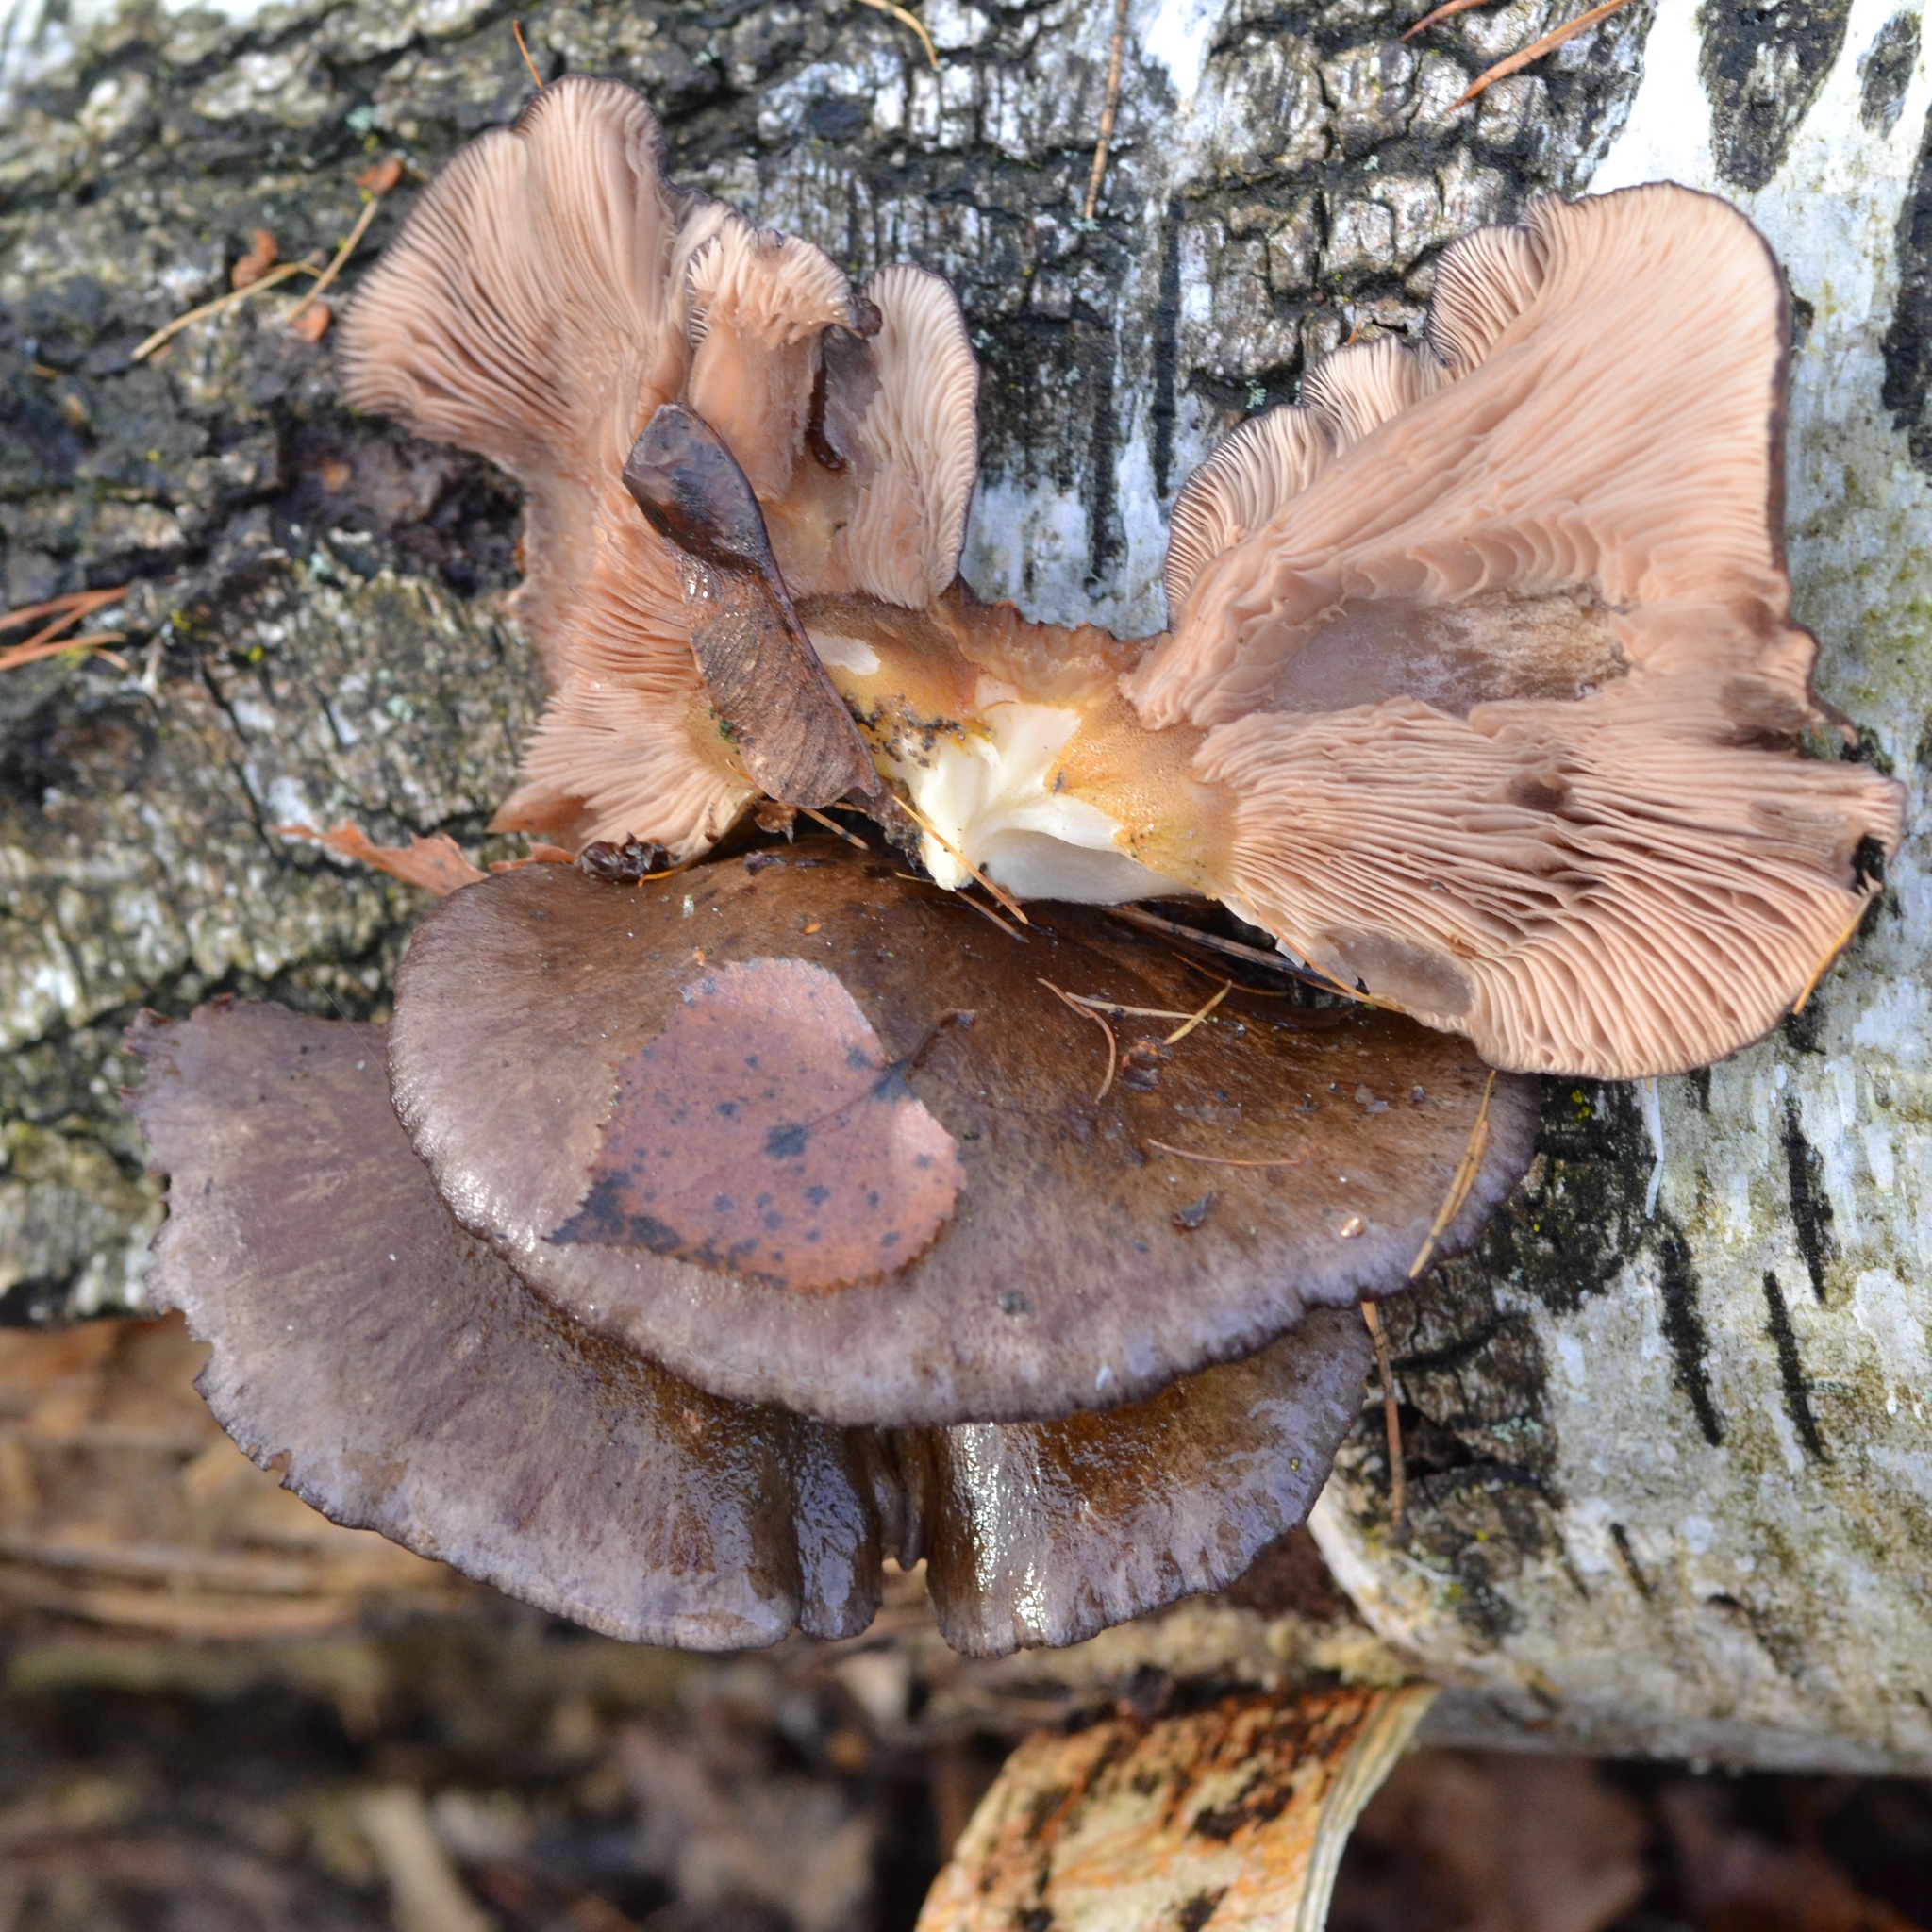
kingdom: Fungi
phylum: Basidiomycota
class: Agaricomycetes
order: Agaricales
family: Pleurotaceae
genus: Pleurotus
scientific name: Pleurotus ostreatus
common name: Oyster mushroom
